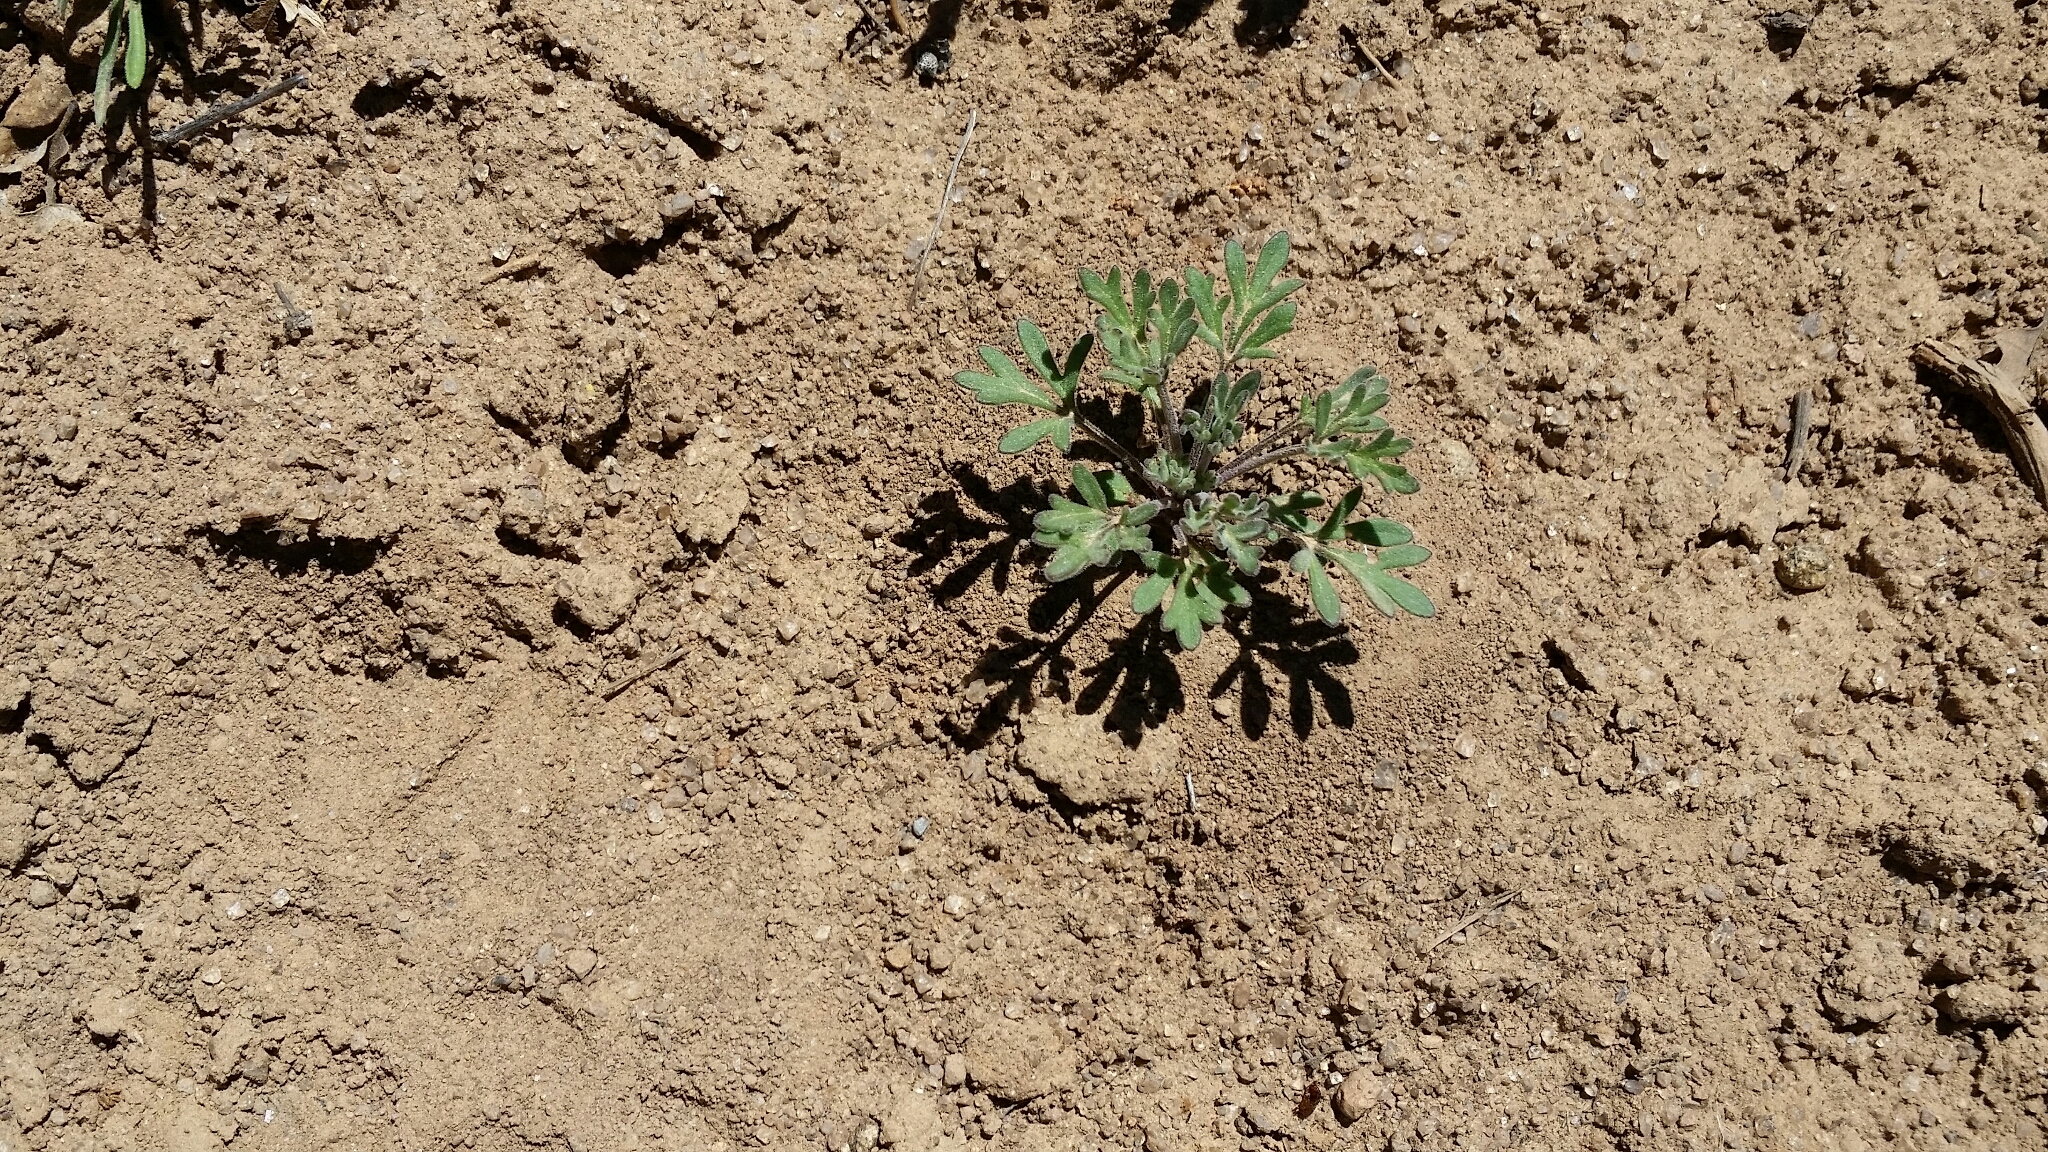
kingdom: Plantae
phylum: Tracheophyta
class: Magnoliopsida
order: Asterales
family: Asteraceae
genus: Hymenothrix
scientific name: Hymenothrix dissecta
